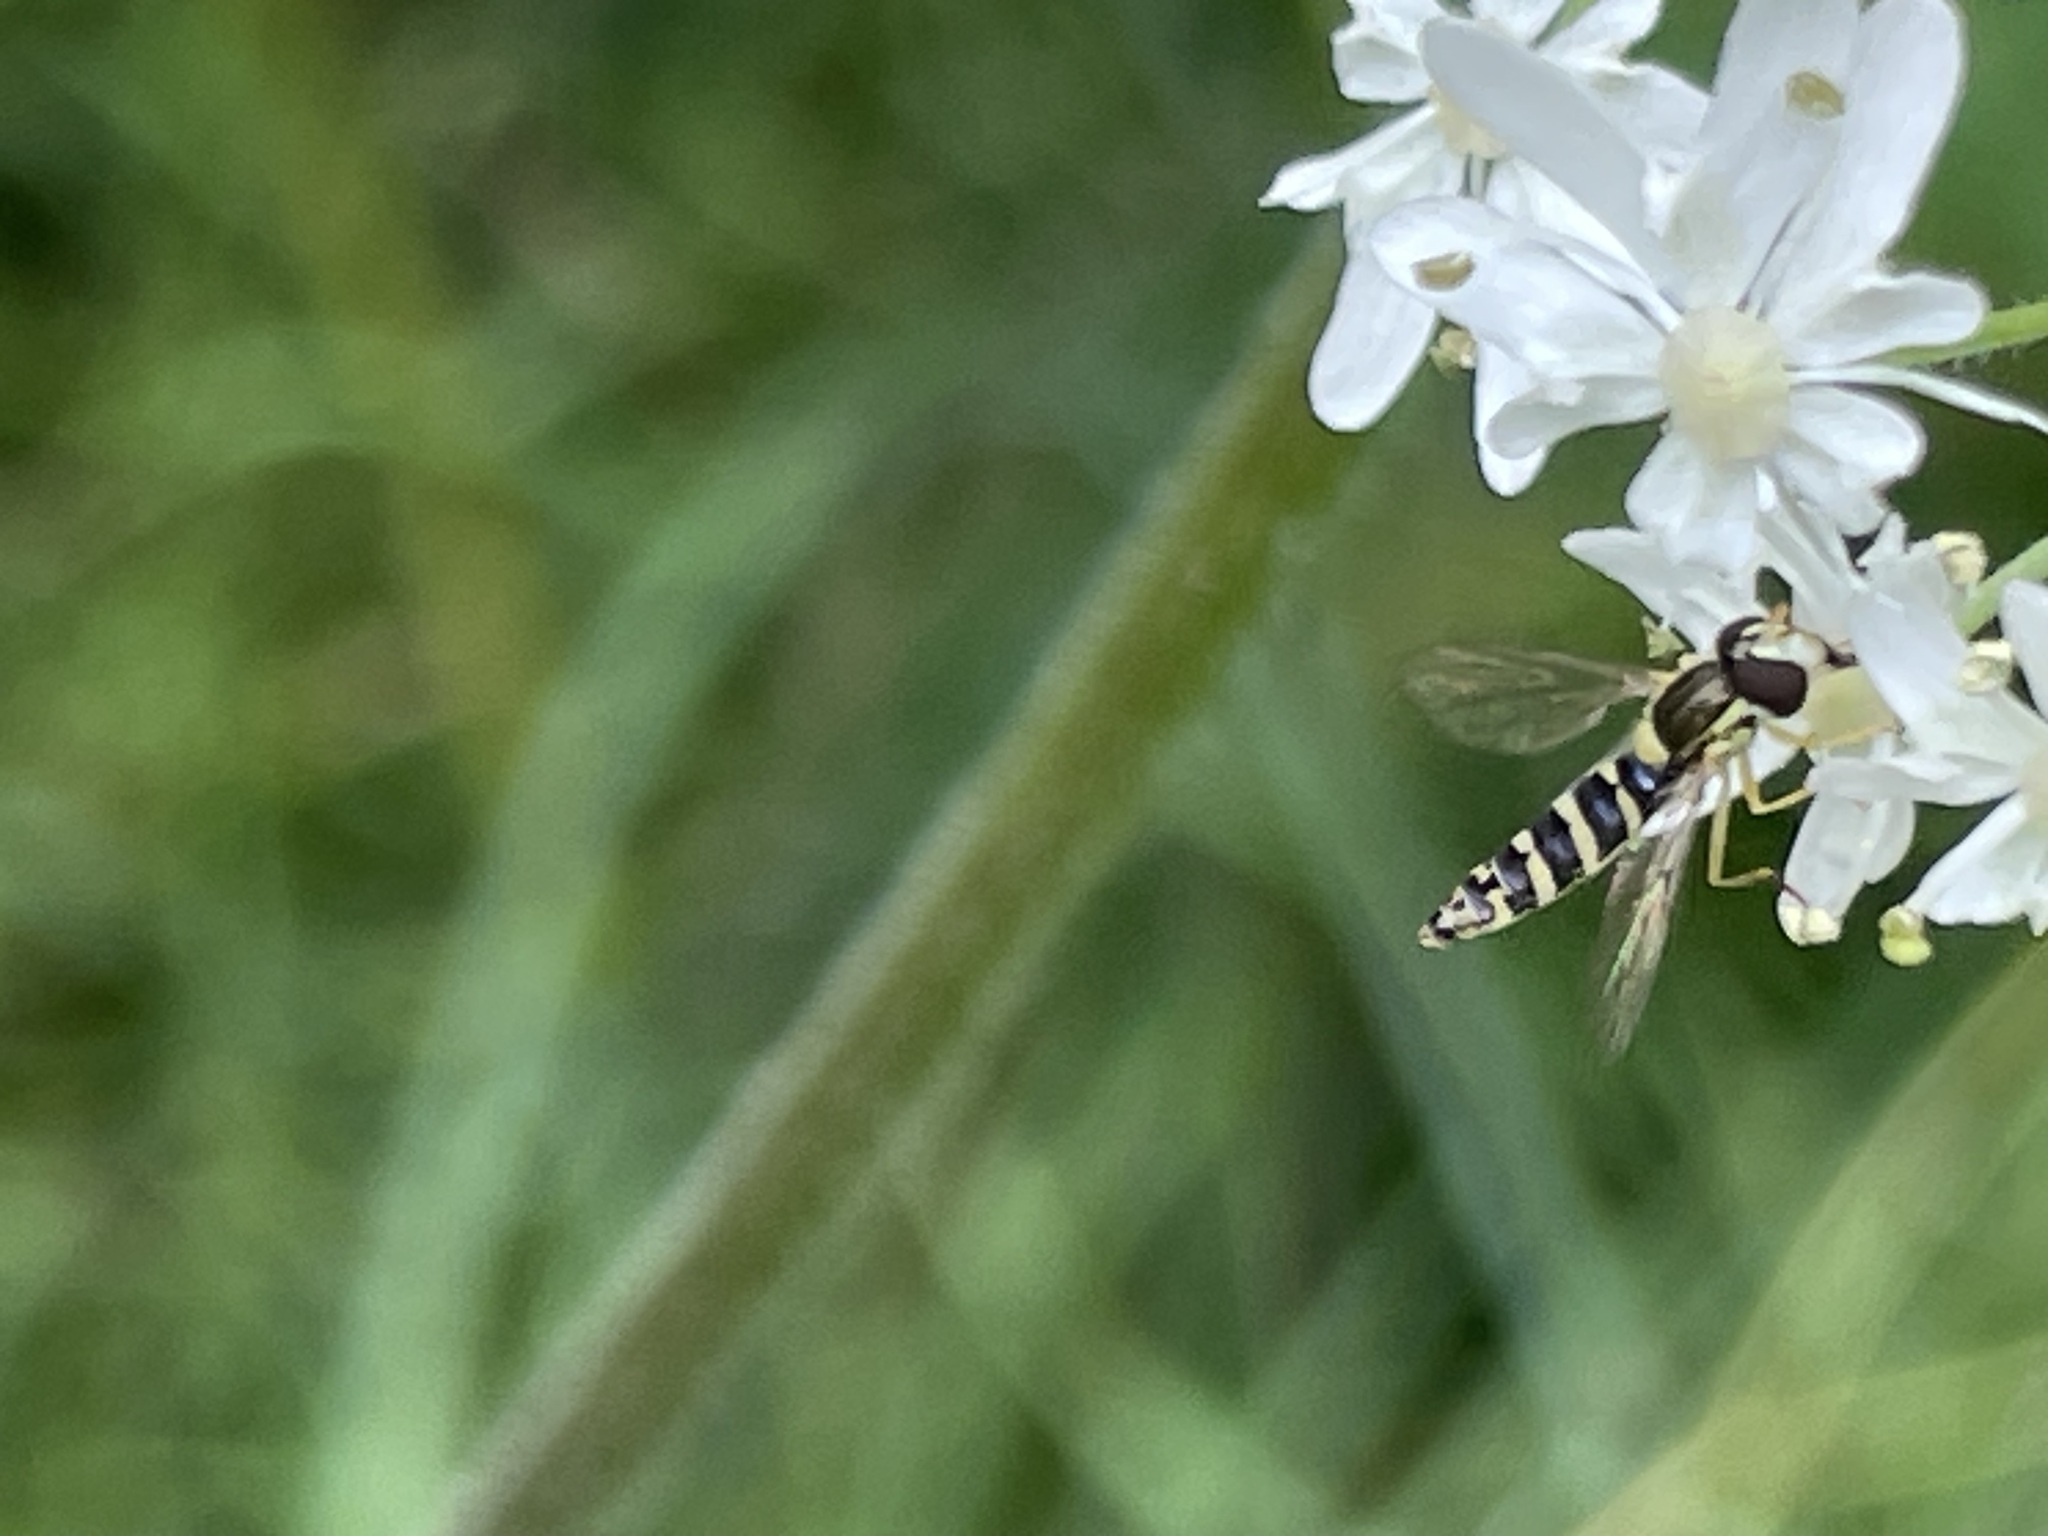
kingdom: Animalia
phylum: Arthropoda
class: Insecta
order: Diptera
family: Syrphidae
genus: Sphaerophoria
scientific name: Sphaerophoria
